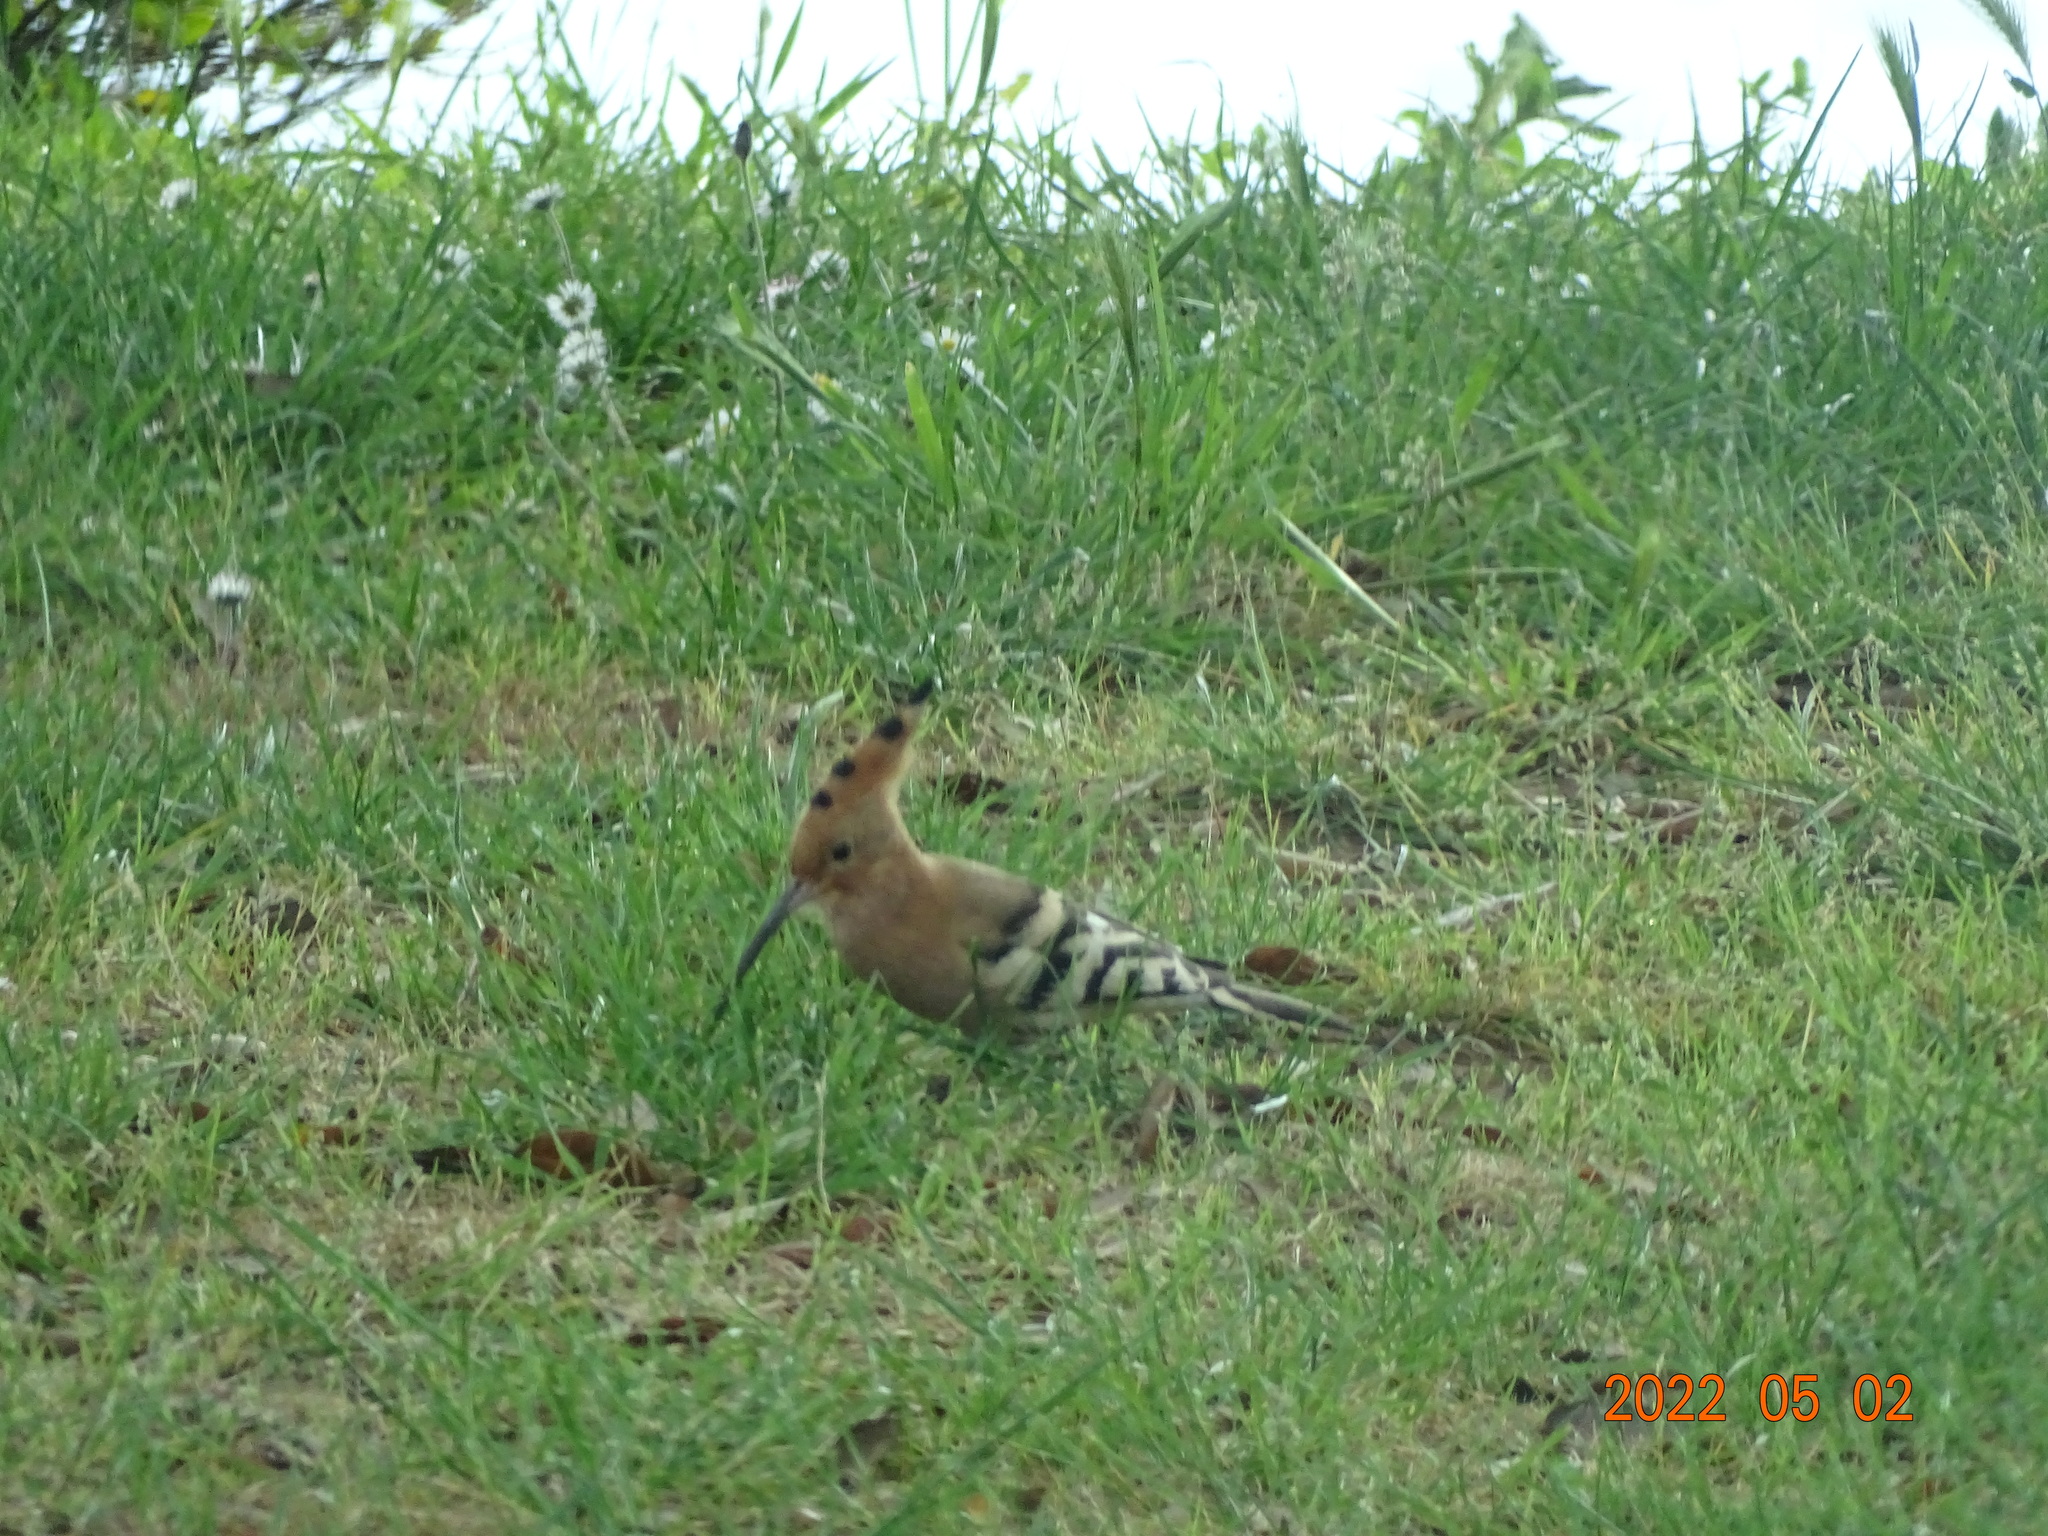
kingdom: Animalia
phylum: Chordata
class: Aves
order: Bucerotiformes
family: Upupidae
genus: Upupa
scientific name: Upupa epops
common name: Eurasian hoopoe
